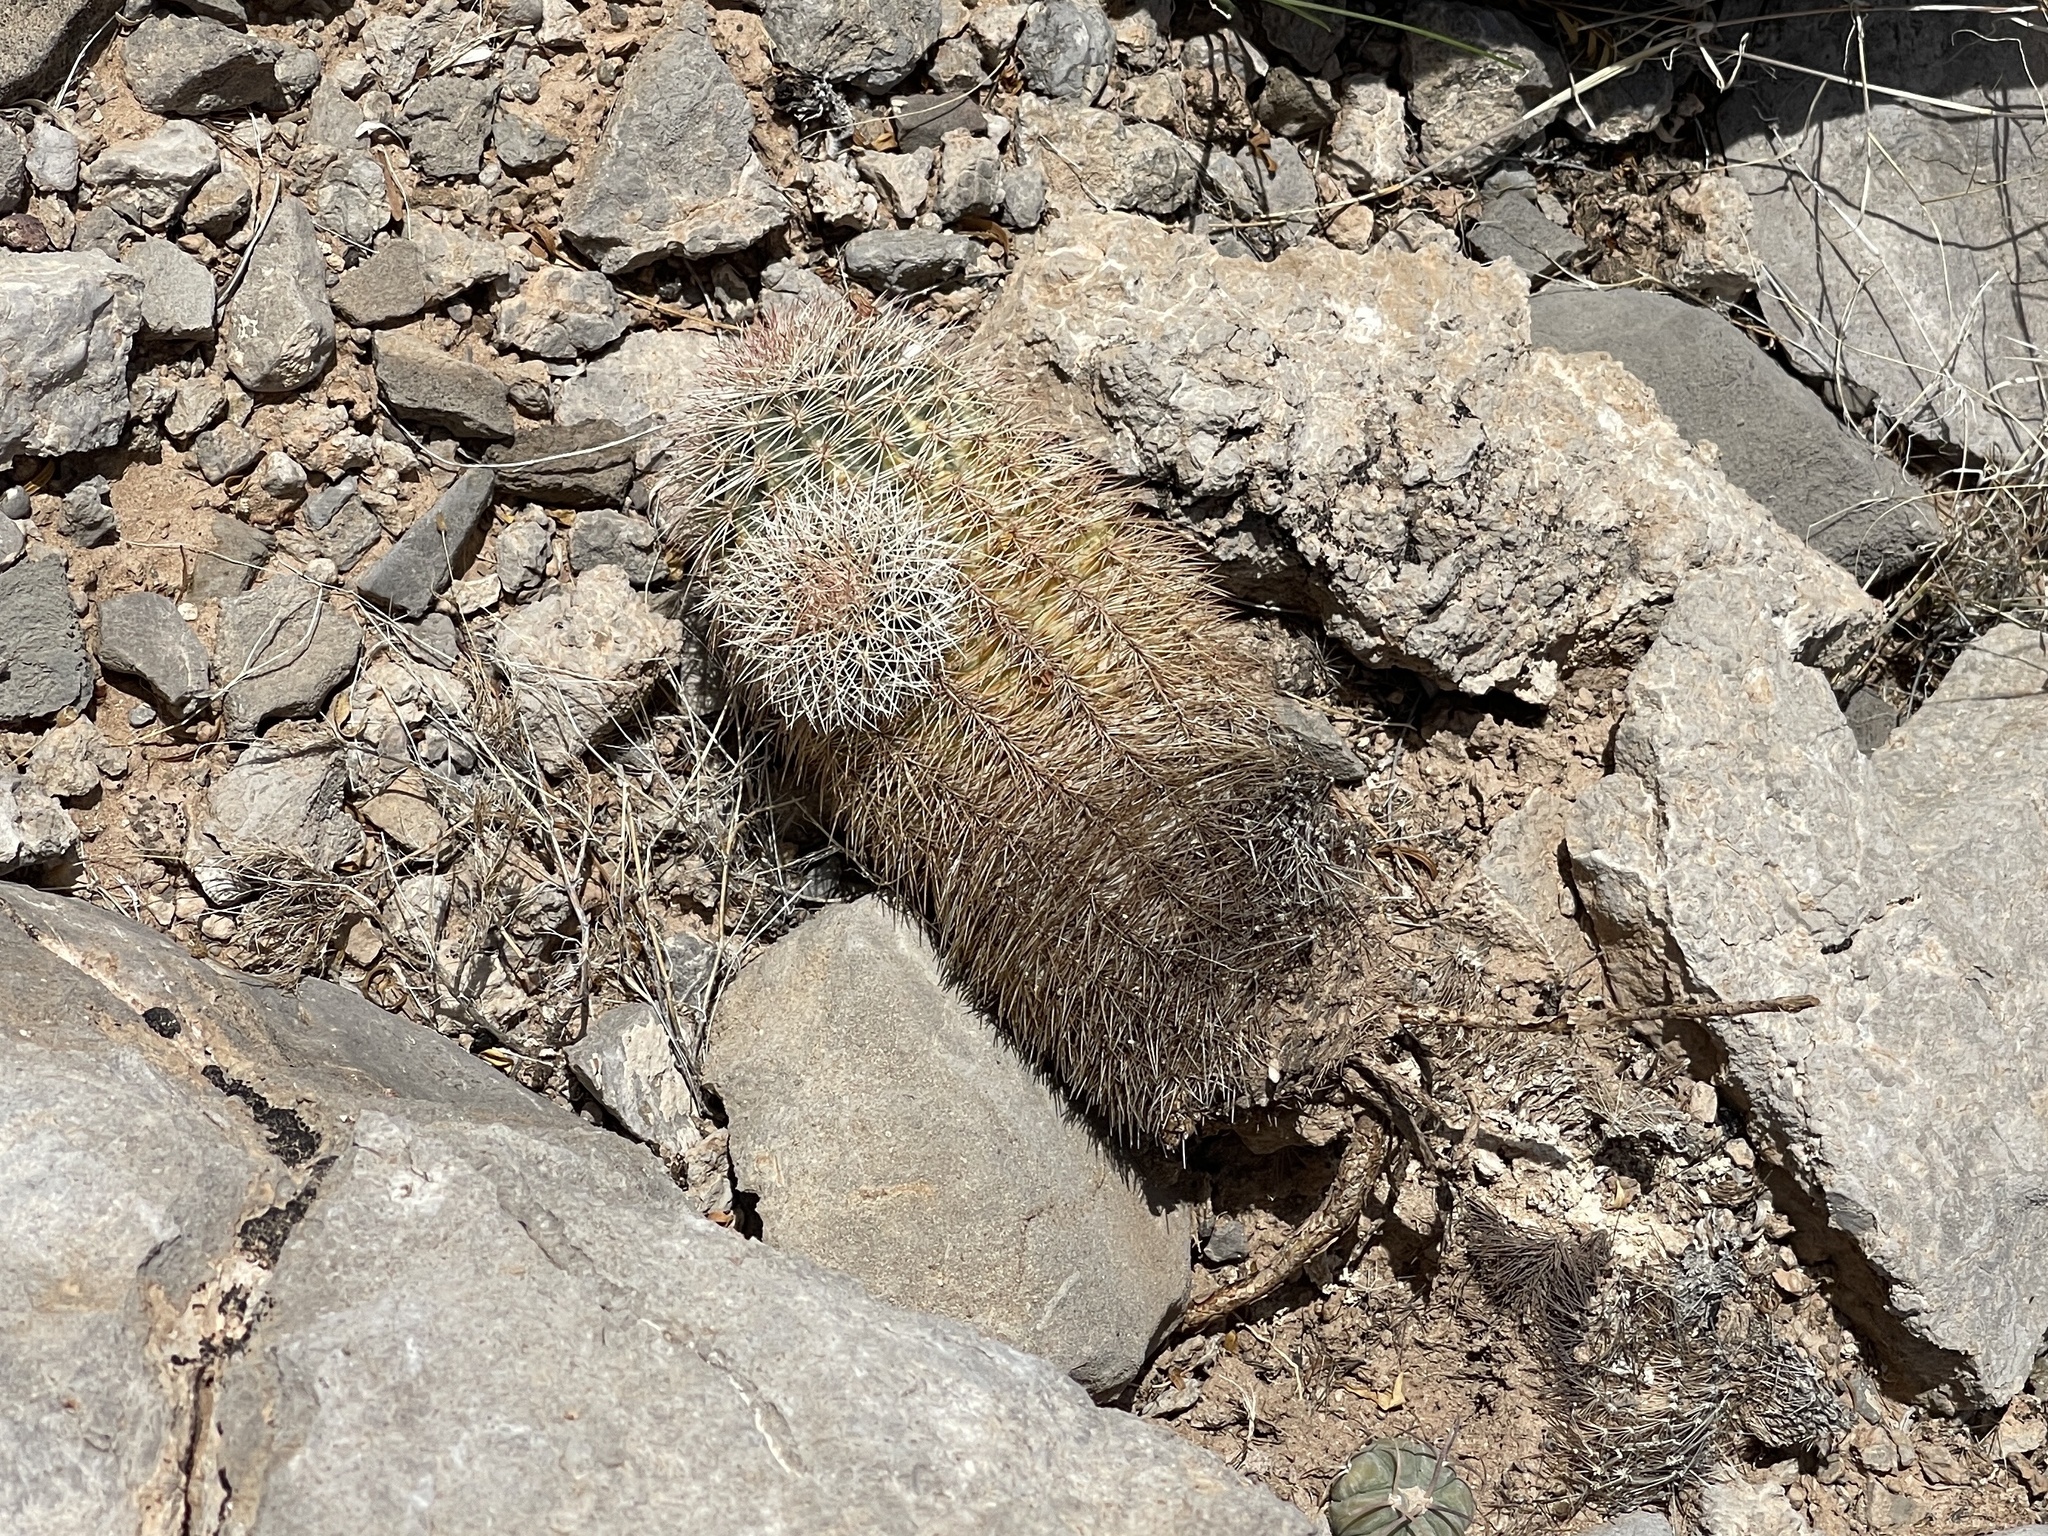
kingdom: Plantae
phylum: Tracheophyta
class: Magnoliopsida
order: Caryophyllales
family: Cactaceae
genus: Echinocereus
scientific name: Echinocereus dasyacanthus
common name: Spiny hedgehog cactus
